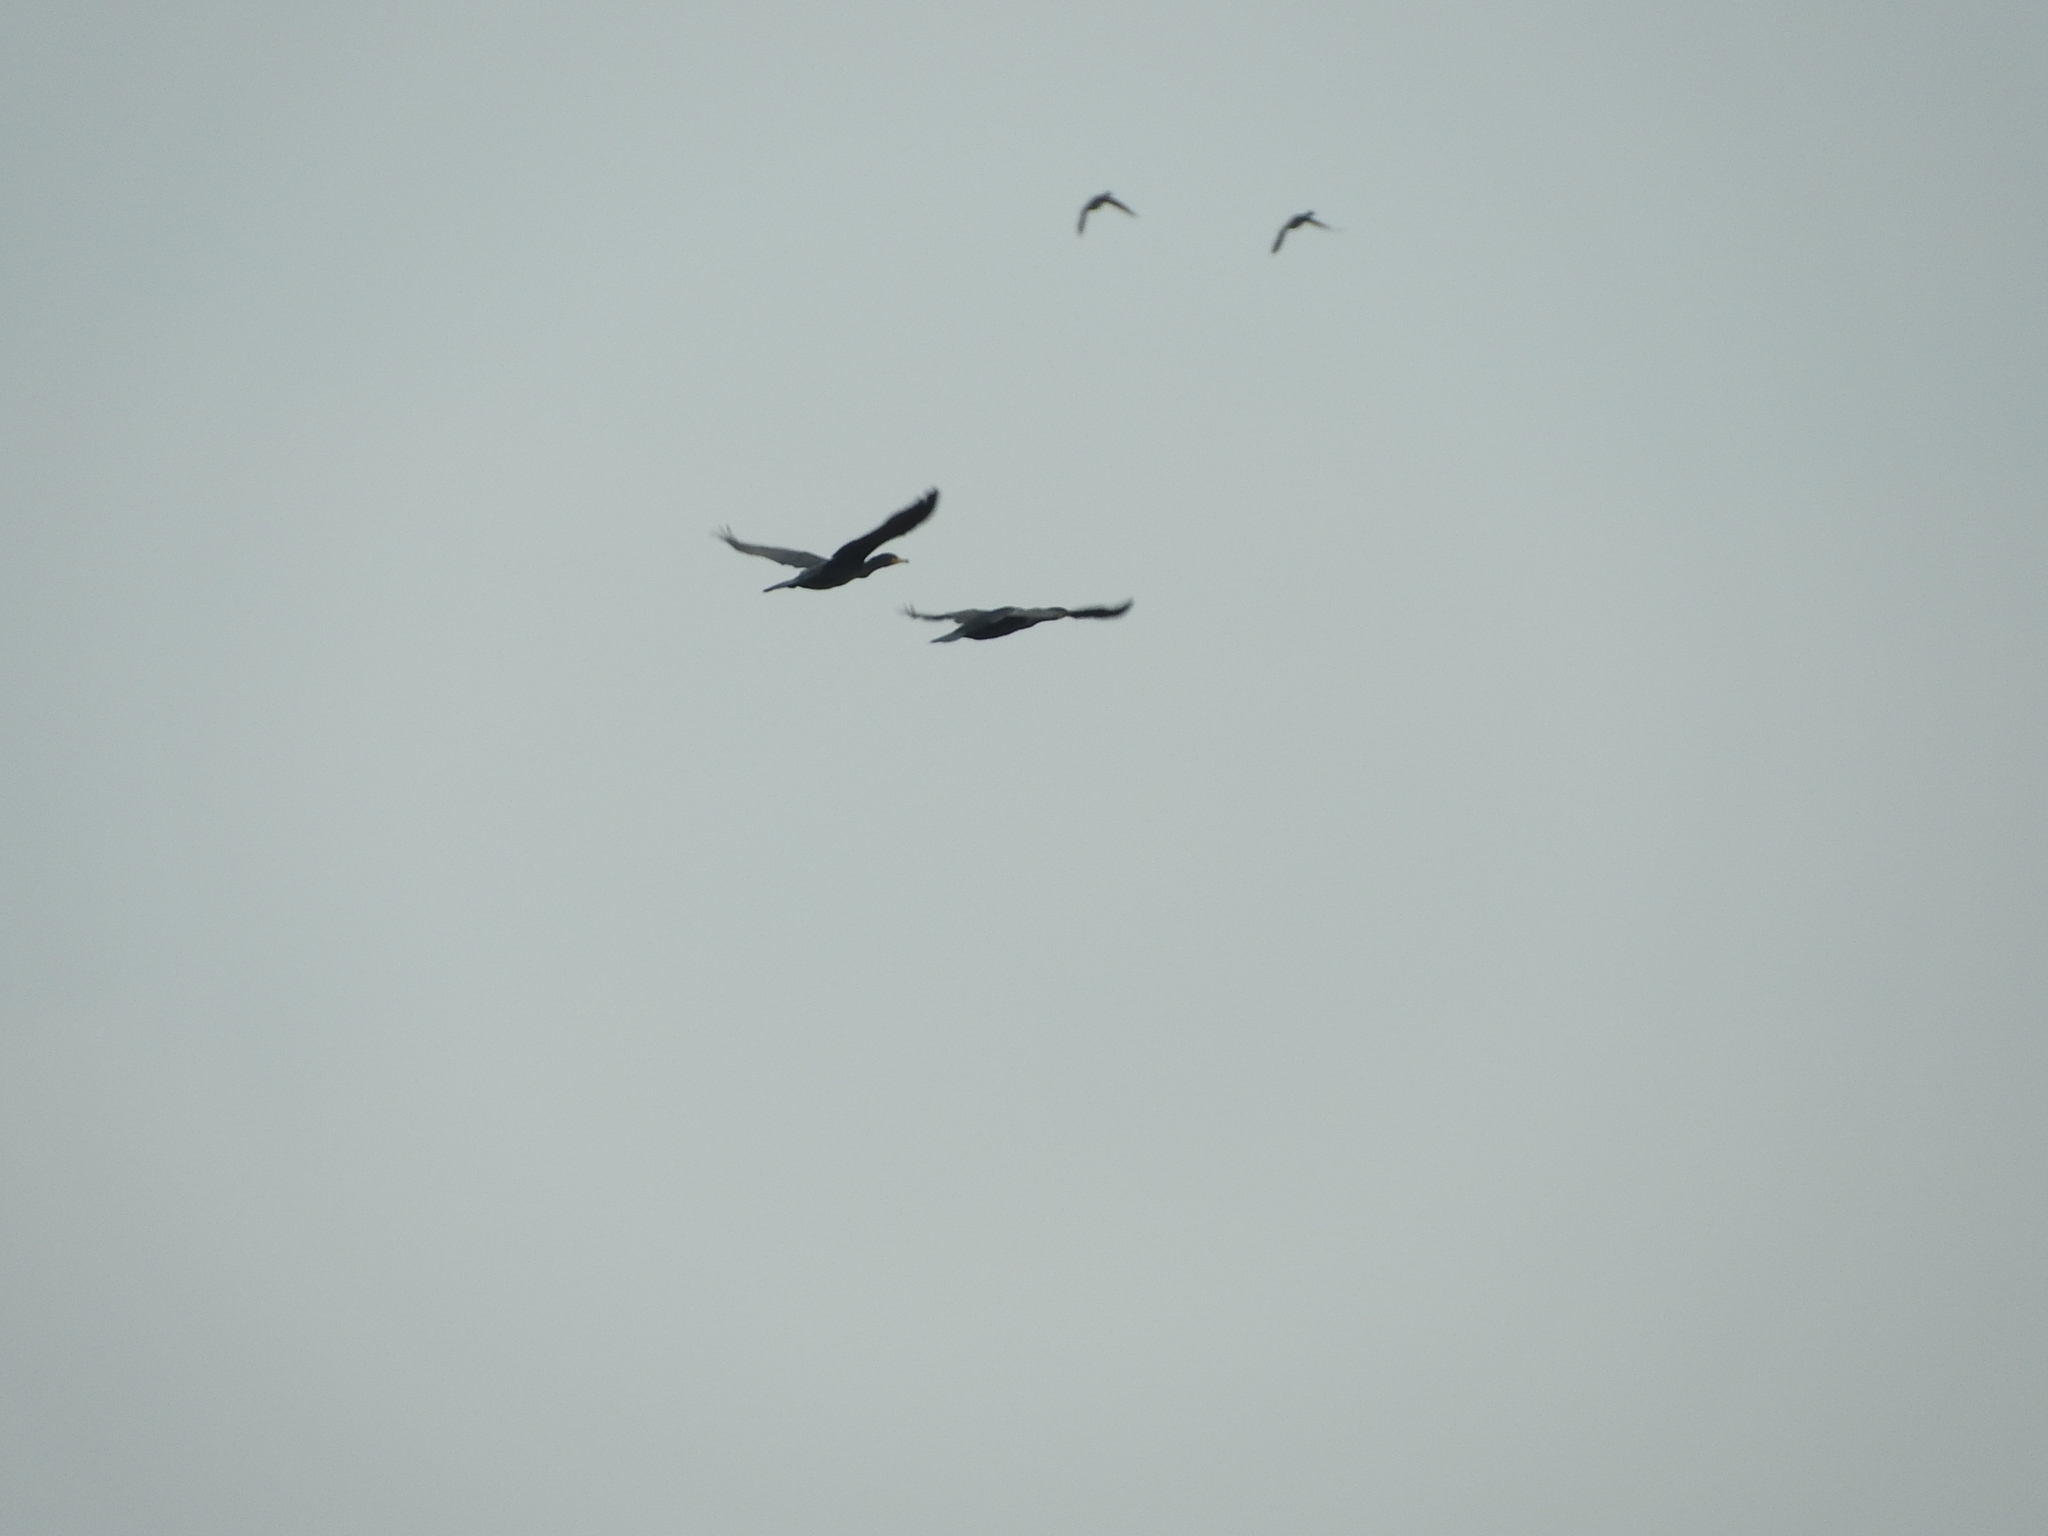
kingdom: Animalia
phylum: Chordata
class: Aves
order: Suliformes
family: Phalacrocoracidae
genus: Phalacrocorax
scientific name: Phalacrocorax carbo
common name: Great cormorant
